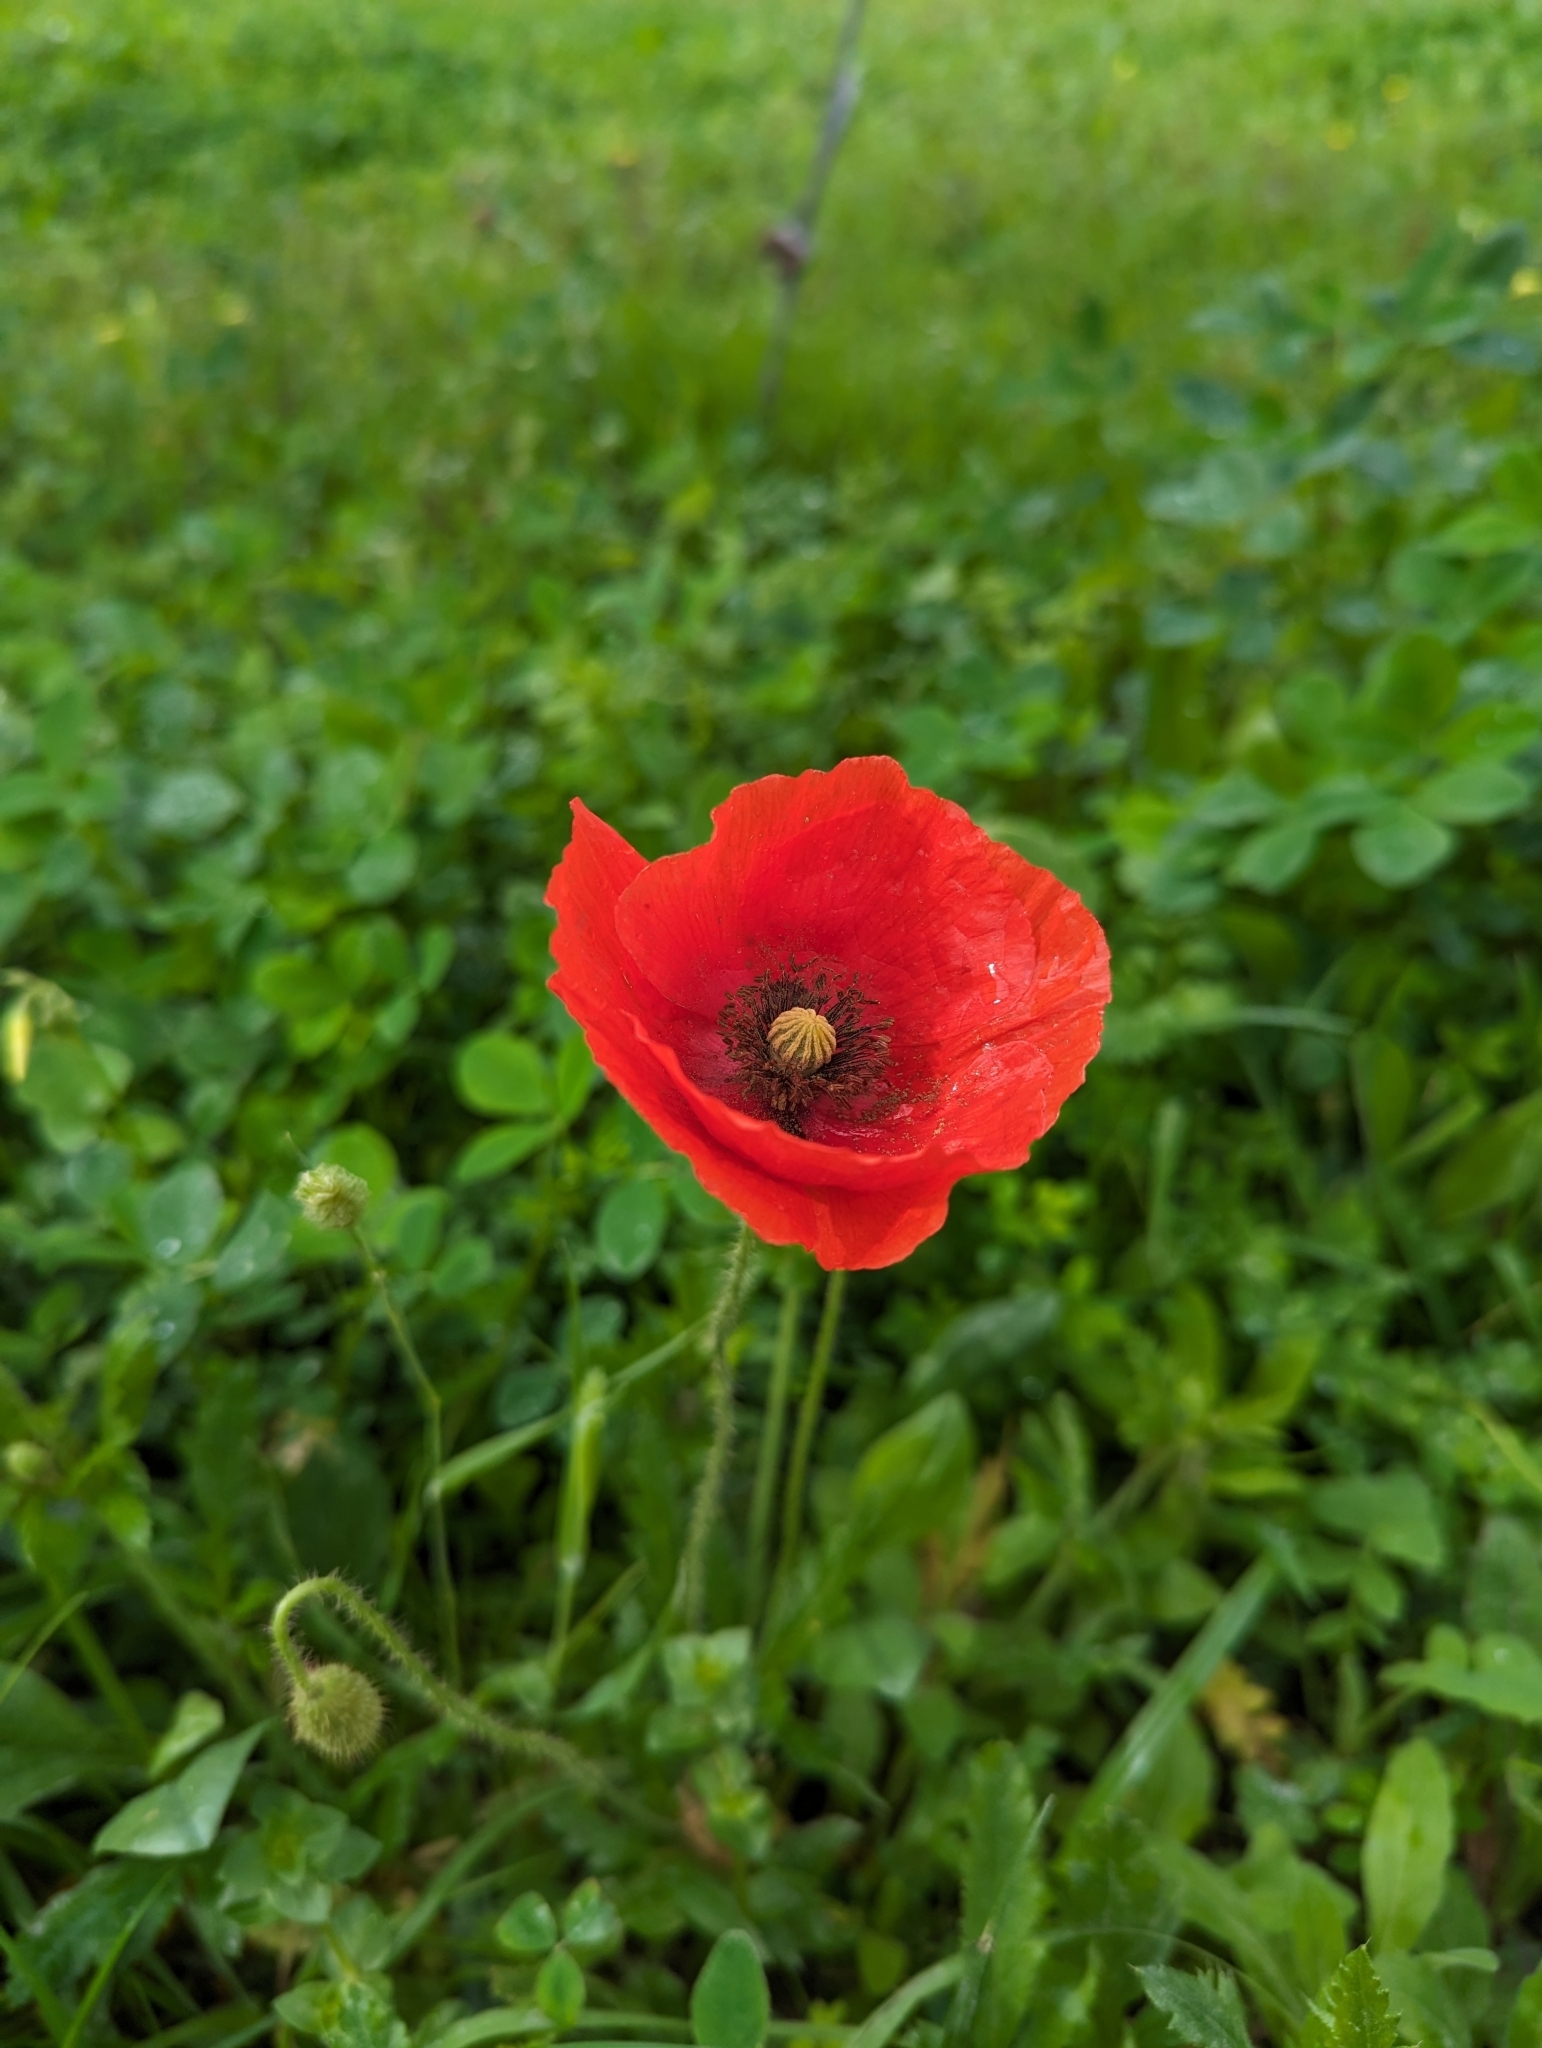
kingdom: Plantae
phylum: Tracheophyta
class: Magnoliopsida
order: Ranunculales
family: Papaveraceae
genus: Papaver
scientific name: Papaver rhoeas
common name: Corn poppy
